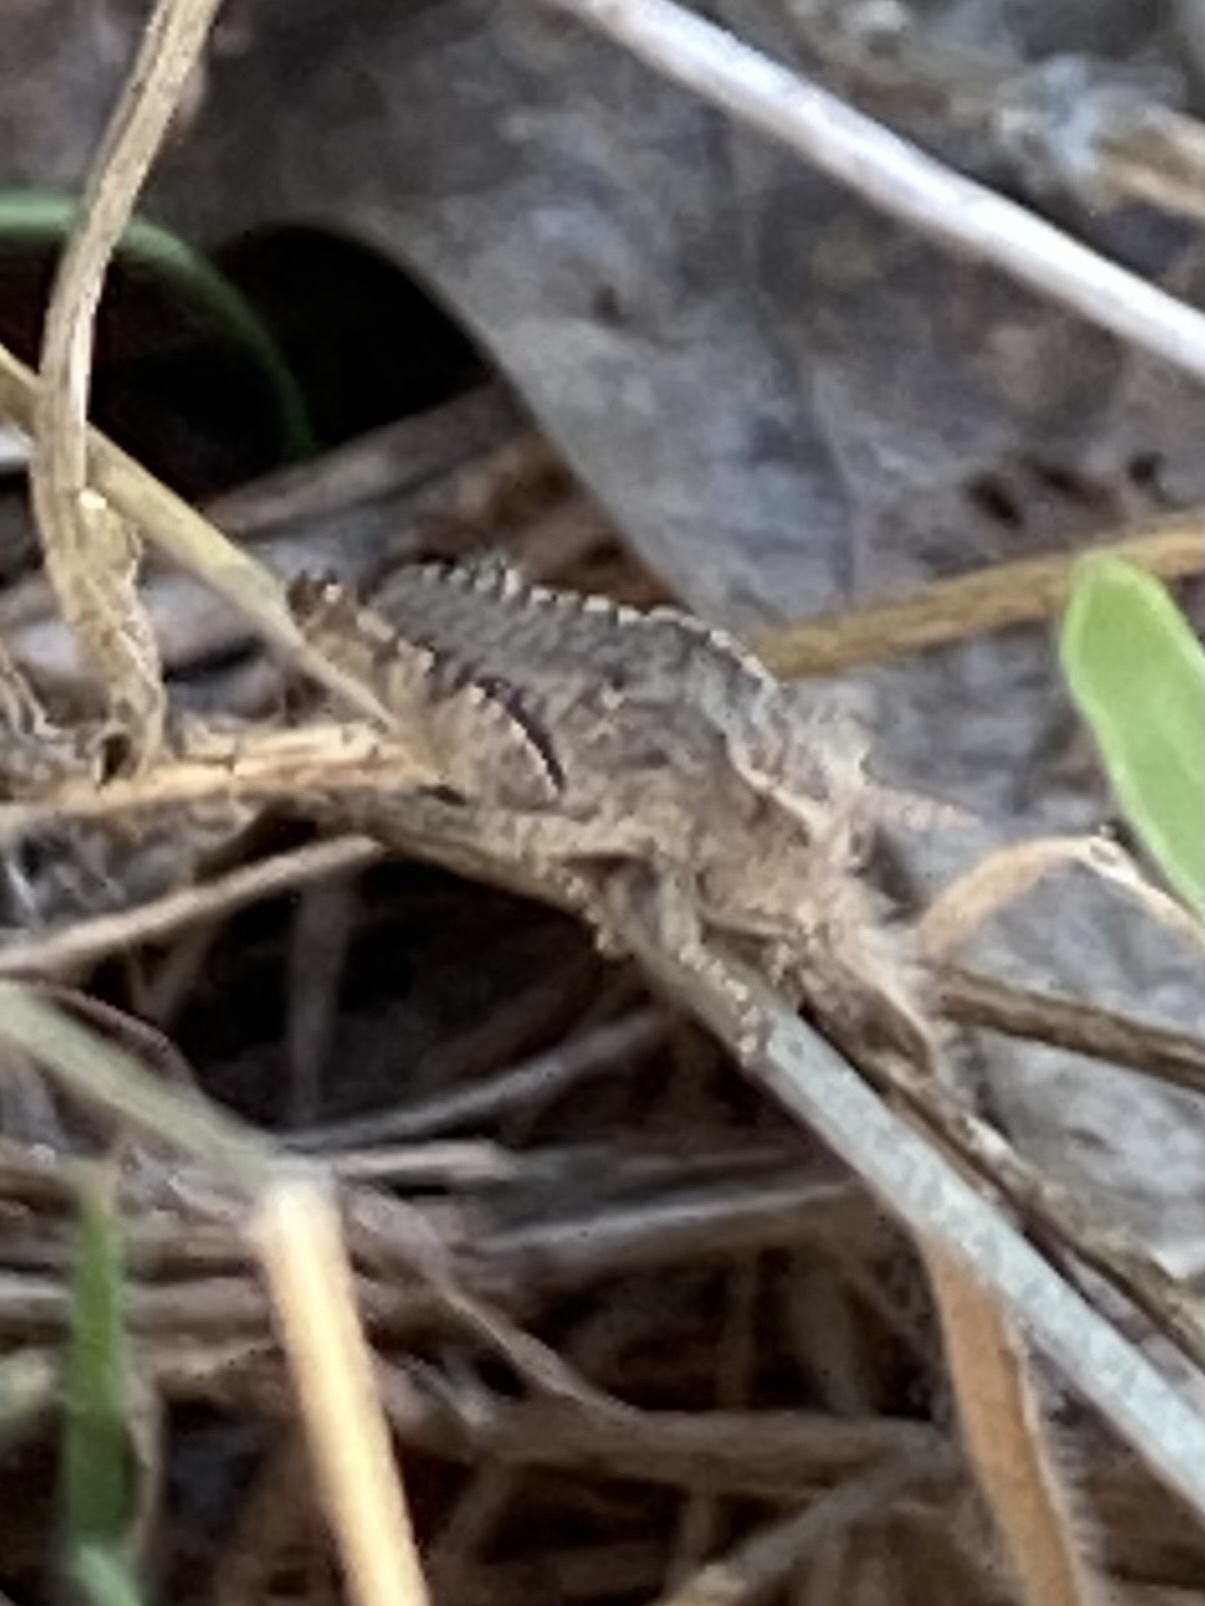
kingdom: Animalia
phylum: Arthropoda
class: Insecta
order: Orthoptera
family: Acrididae
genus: Chortophaga
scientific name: Chortophaga viridifasciata
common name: Green-striped grasshopper
